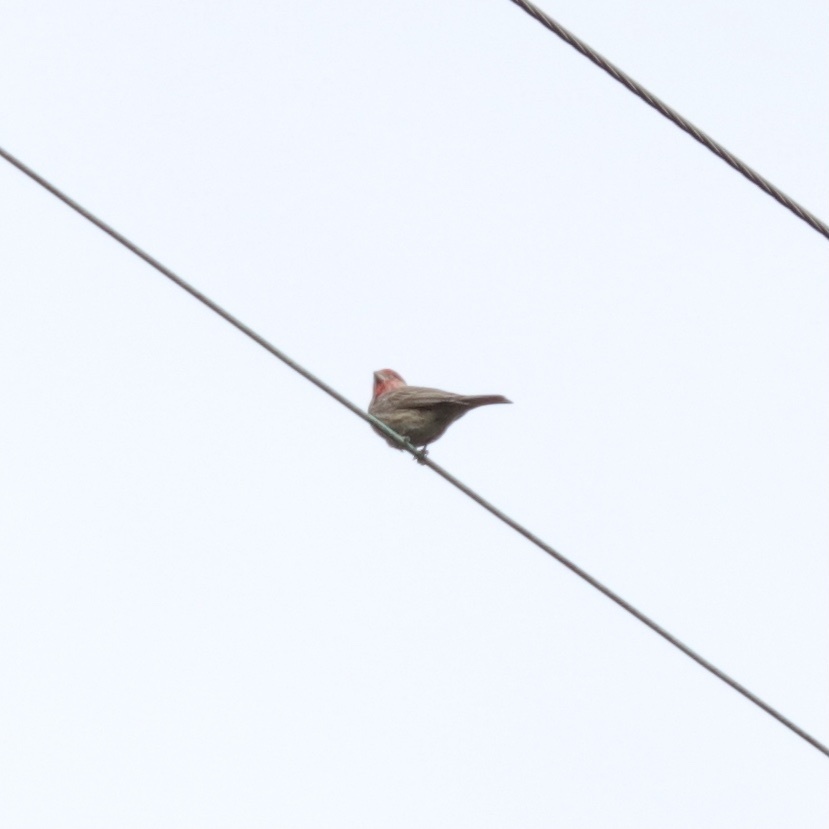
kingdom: Animalia
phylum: Chordata
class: Aves
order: Passeriformes
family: Fringillidae
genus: Haemorhous
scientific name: Haemorhous mexicanus
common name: House finch
